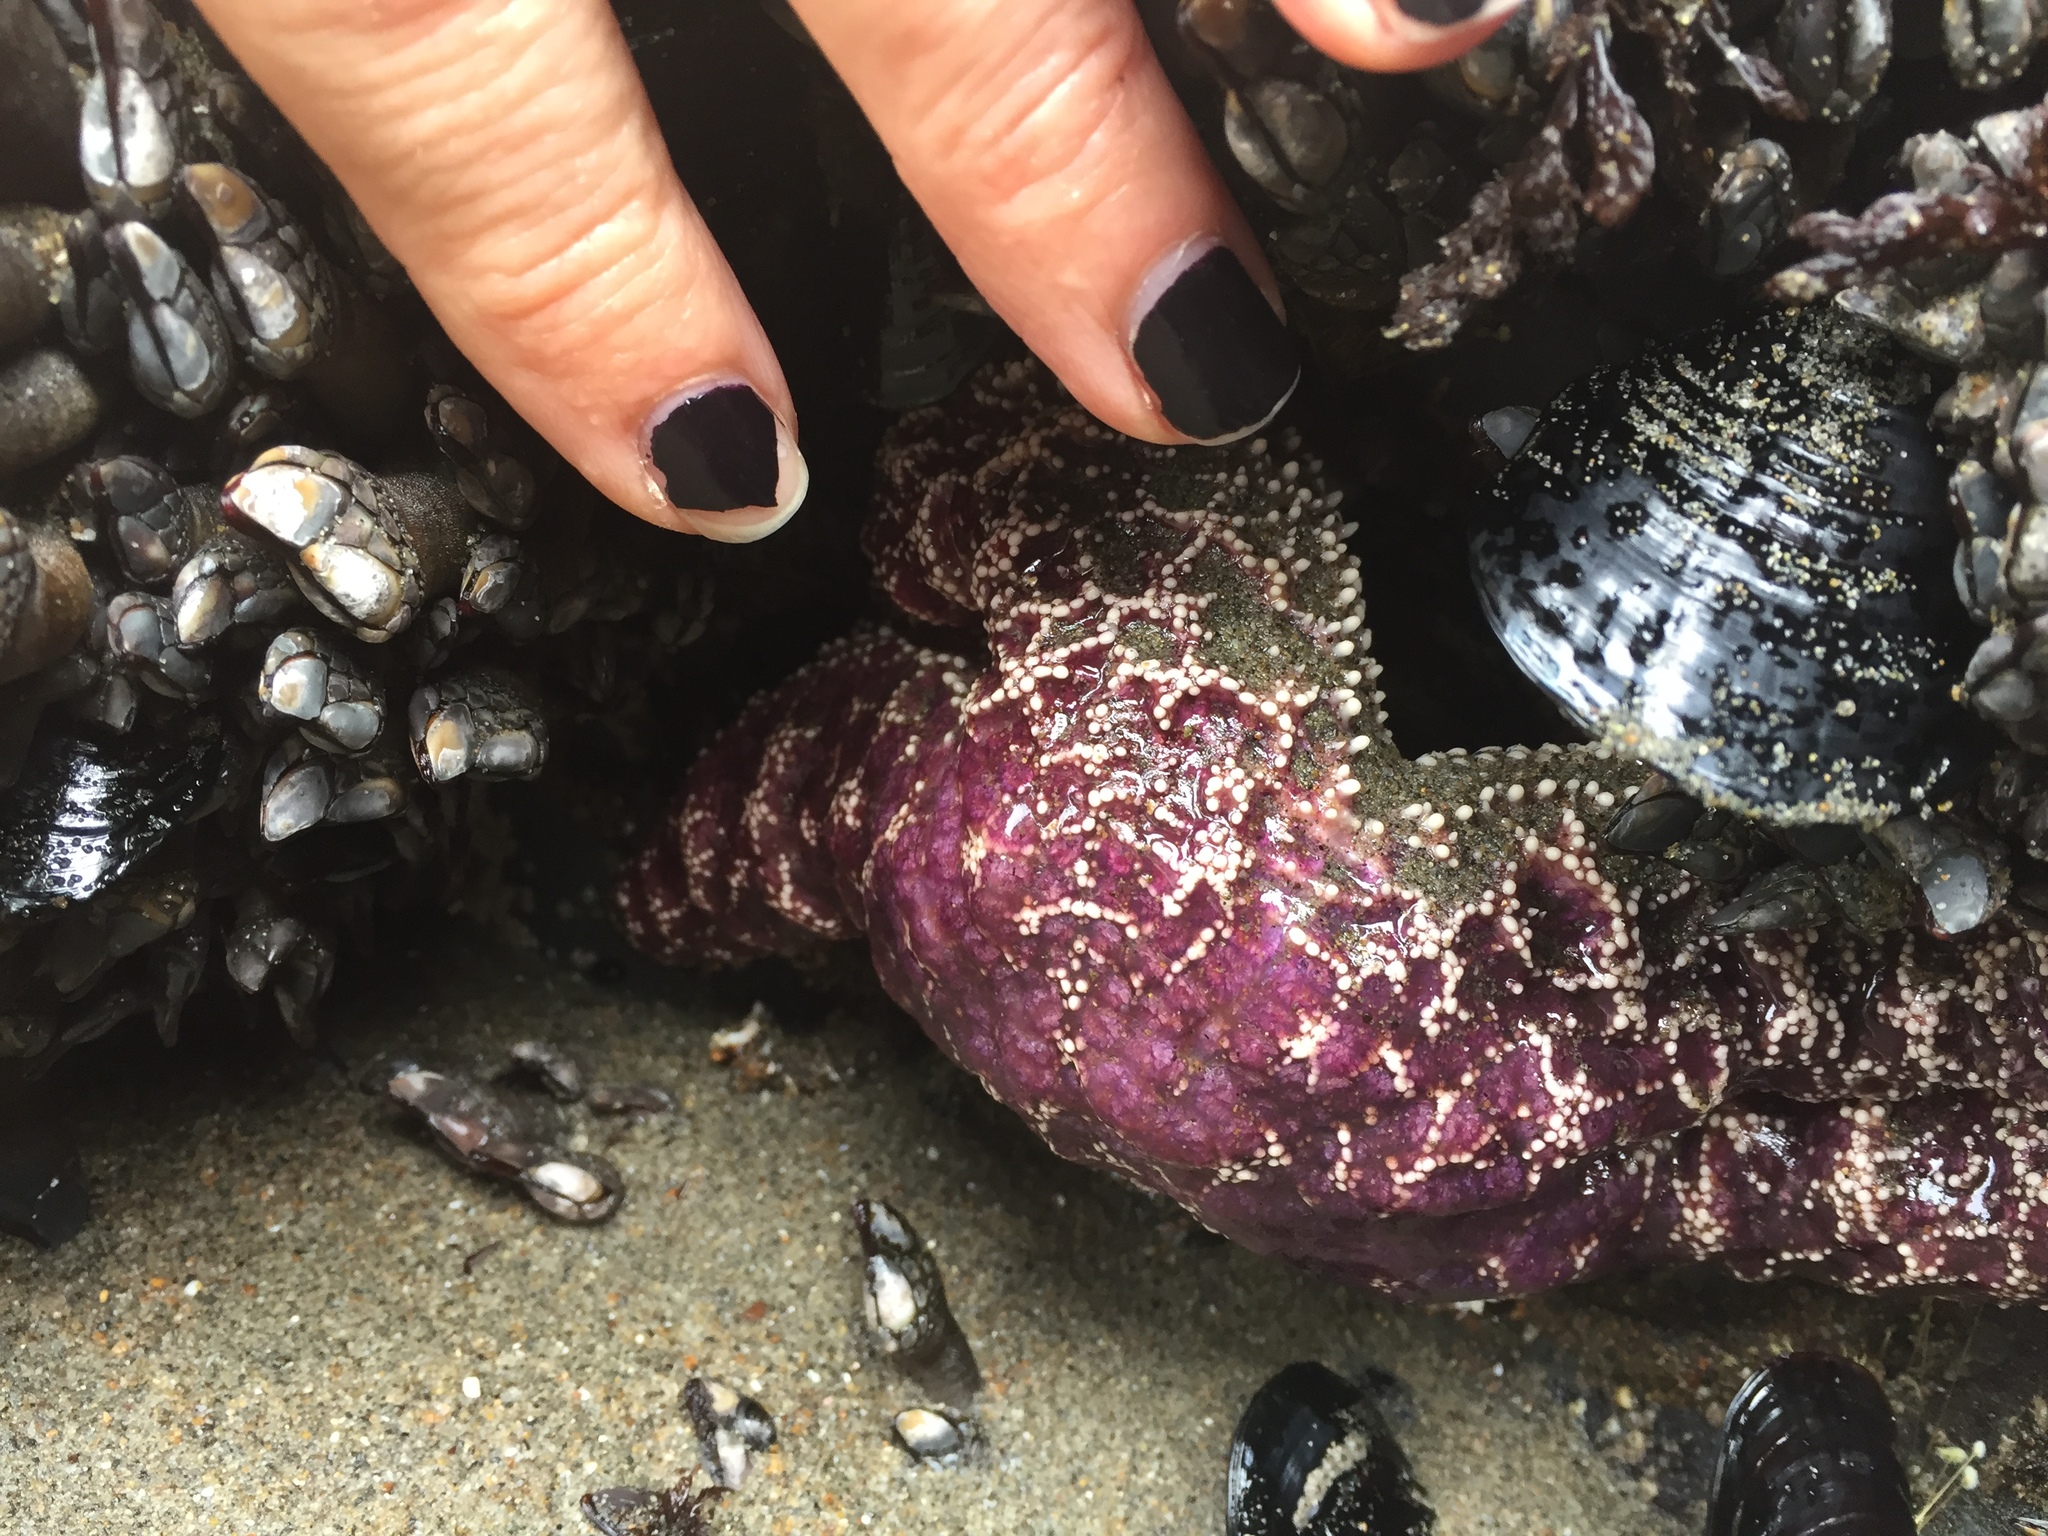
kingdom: Animalia
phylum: Echinodermata
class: Asteroidea
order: Forcipulatida
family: Asteriidae
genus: Pisaster
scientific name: Pisaster ochraceus
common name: Ochre stars
